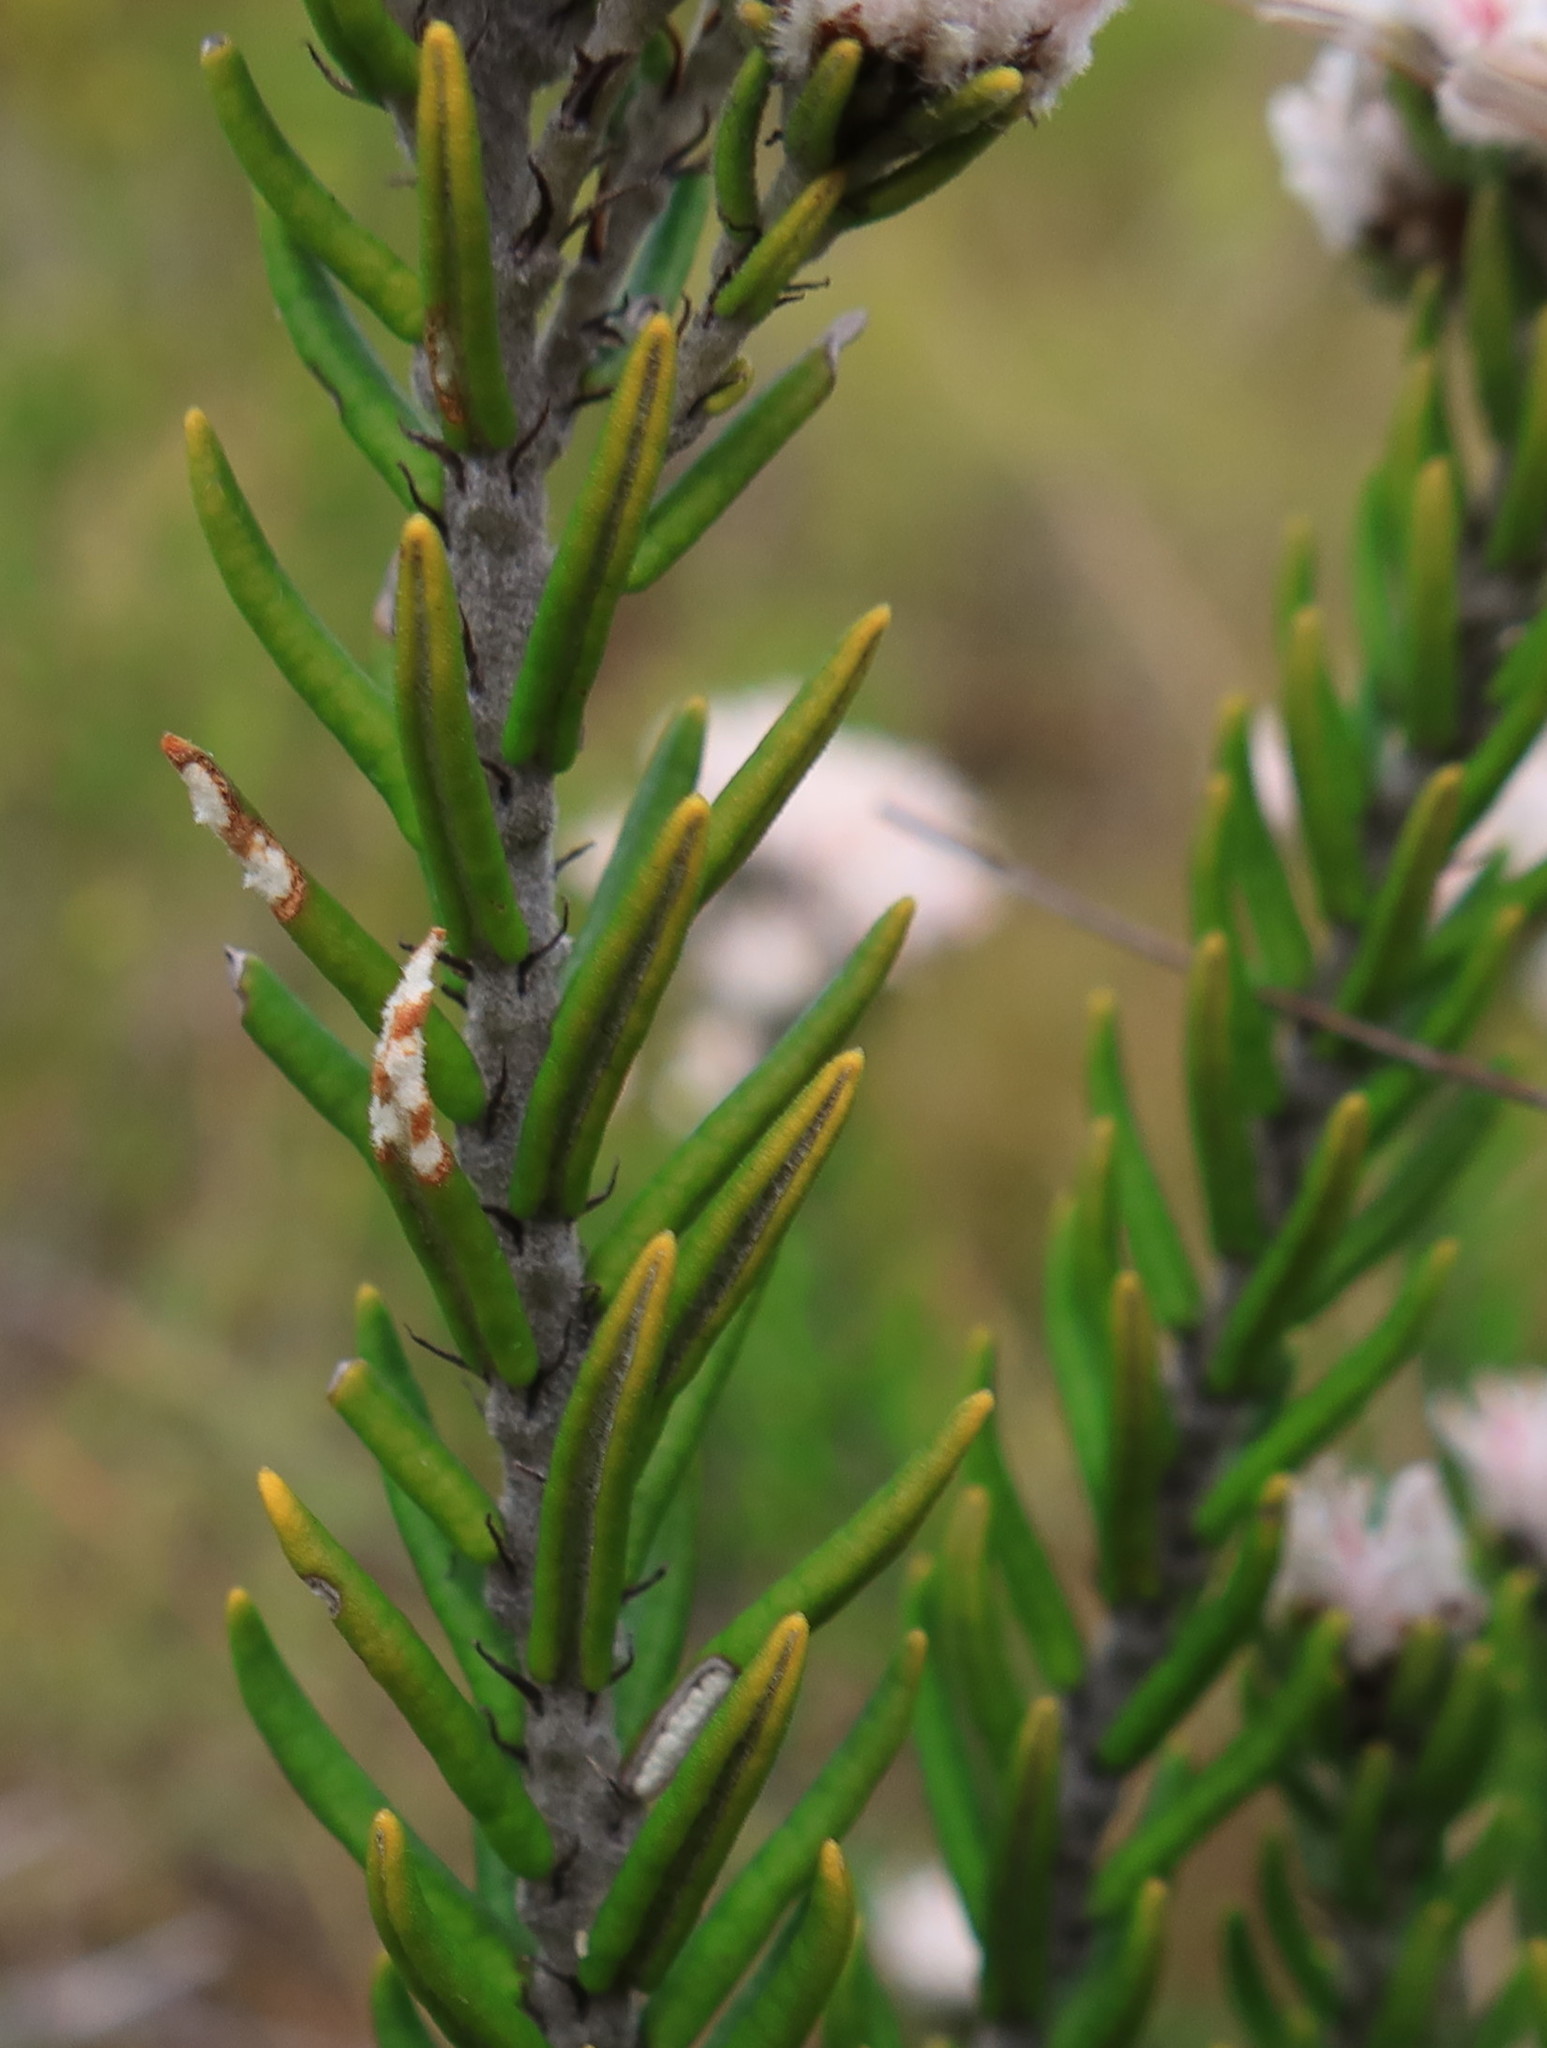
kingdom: Plantae
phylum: Tracheophyta
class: Magnoliopsida
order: Rosales
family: Rhamnaceae
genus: Trichocephalus
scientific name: Trichocephalus stipularis
